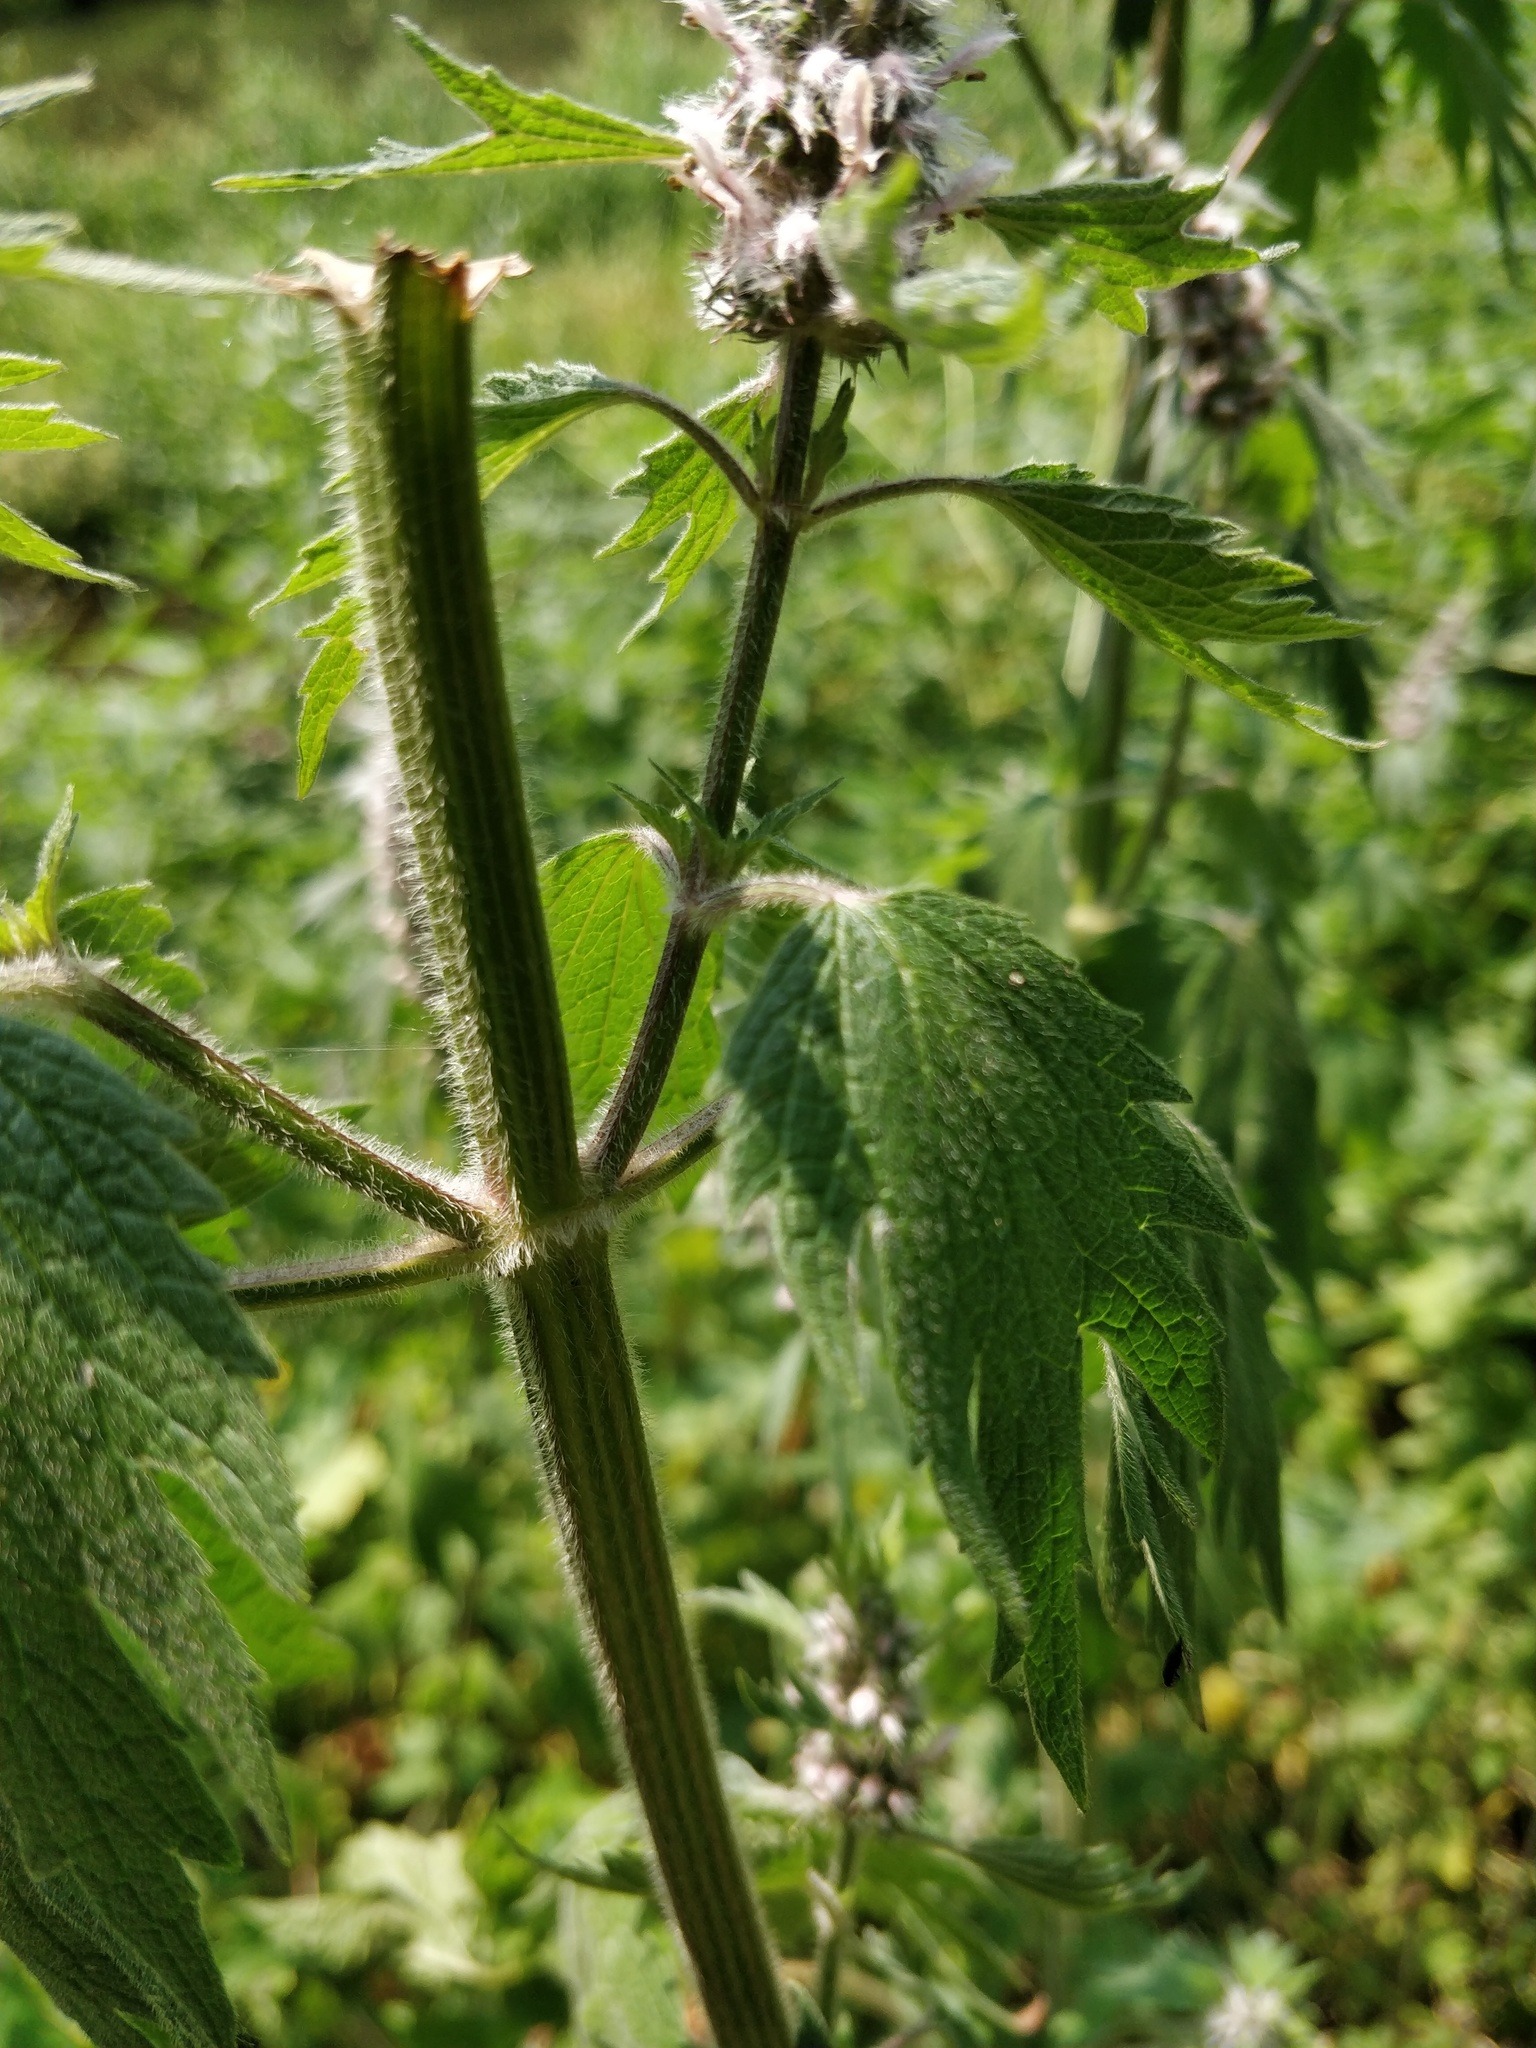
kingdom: Plantae
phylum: Tracheophyta
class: Magnoliopsida
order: Lamiales
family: Lamiaceae
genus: Leonurus
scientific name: Leonurus quinquelobatus
